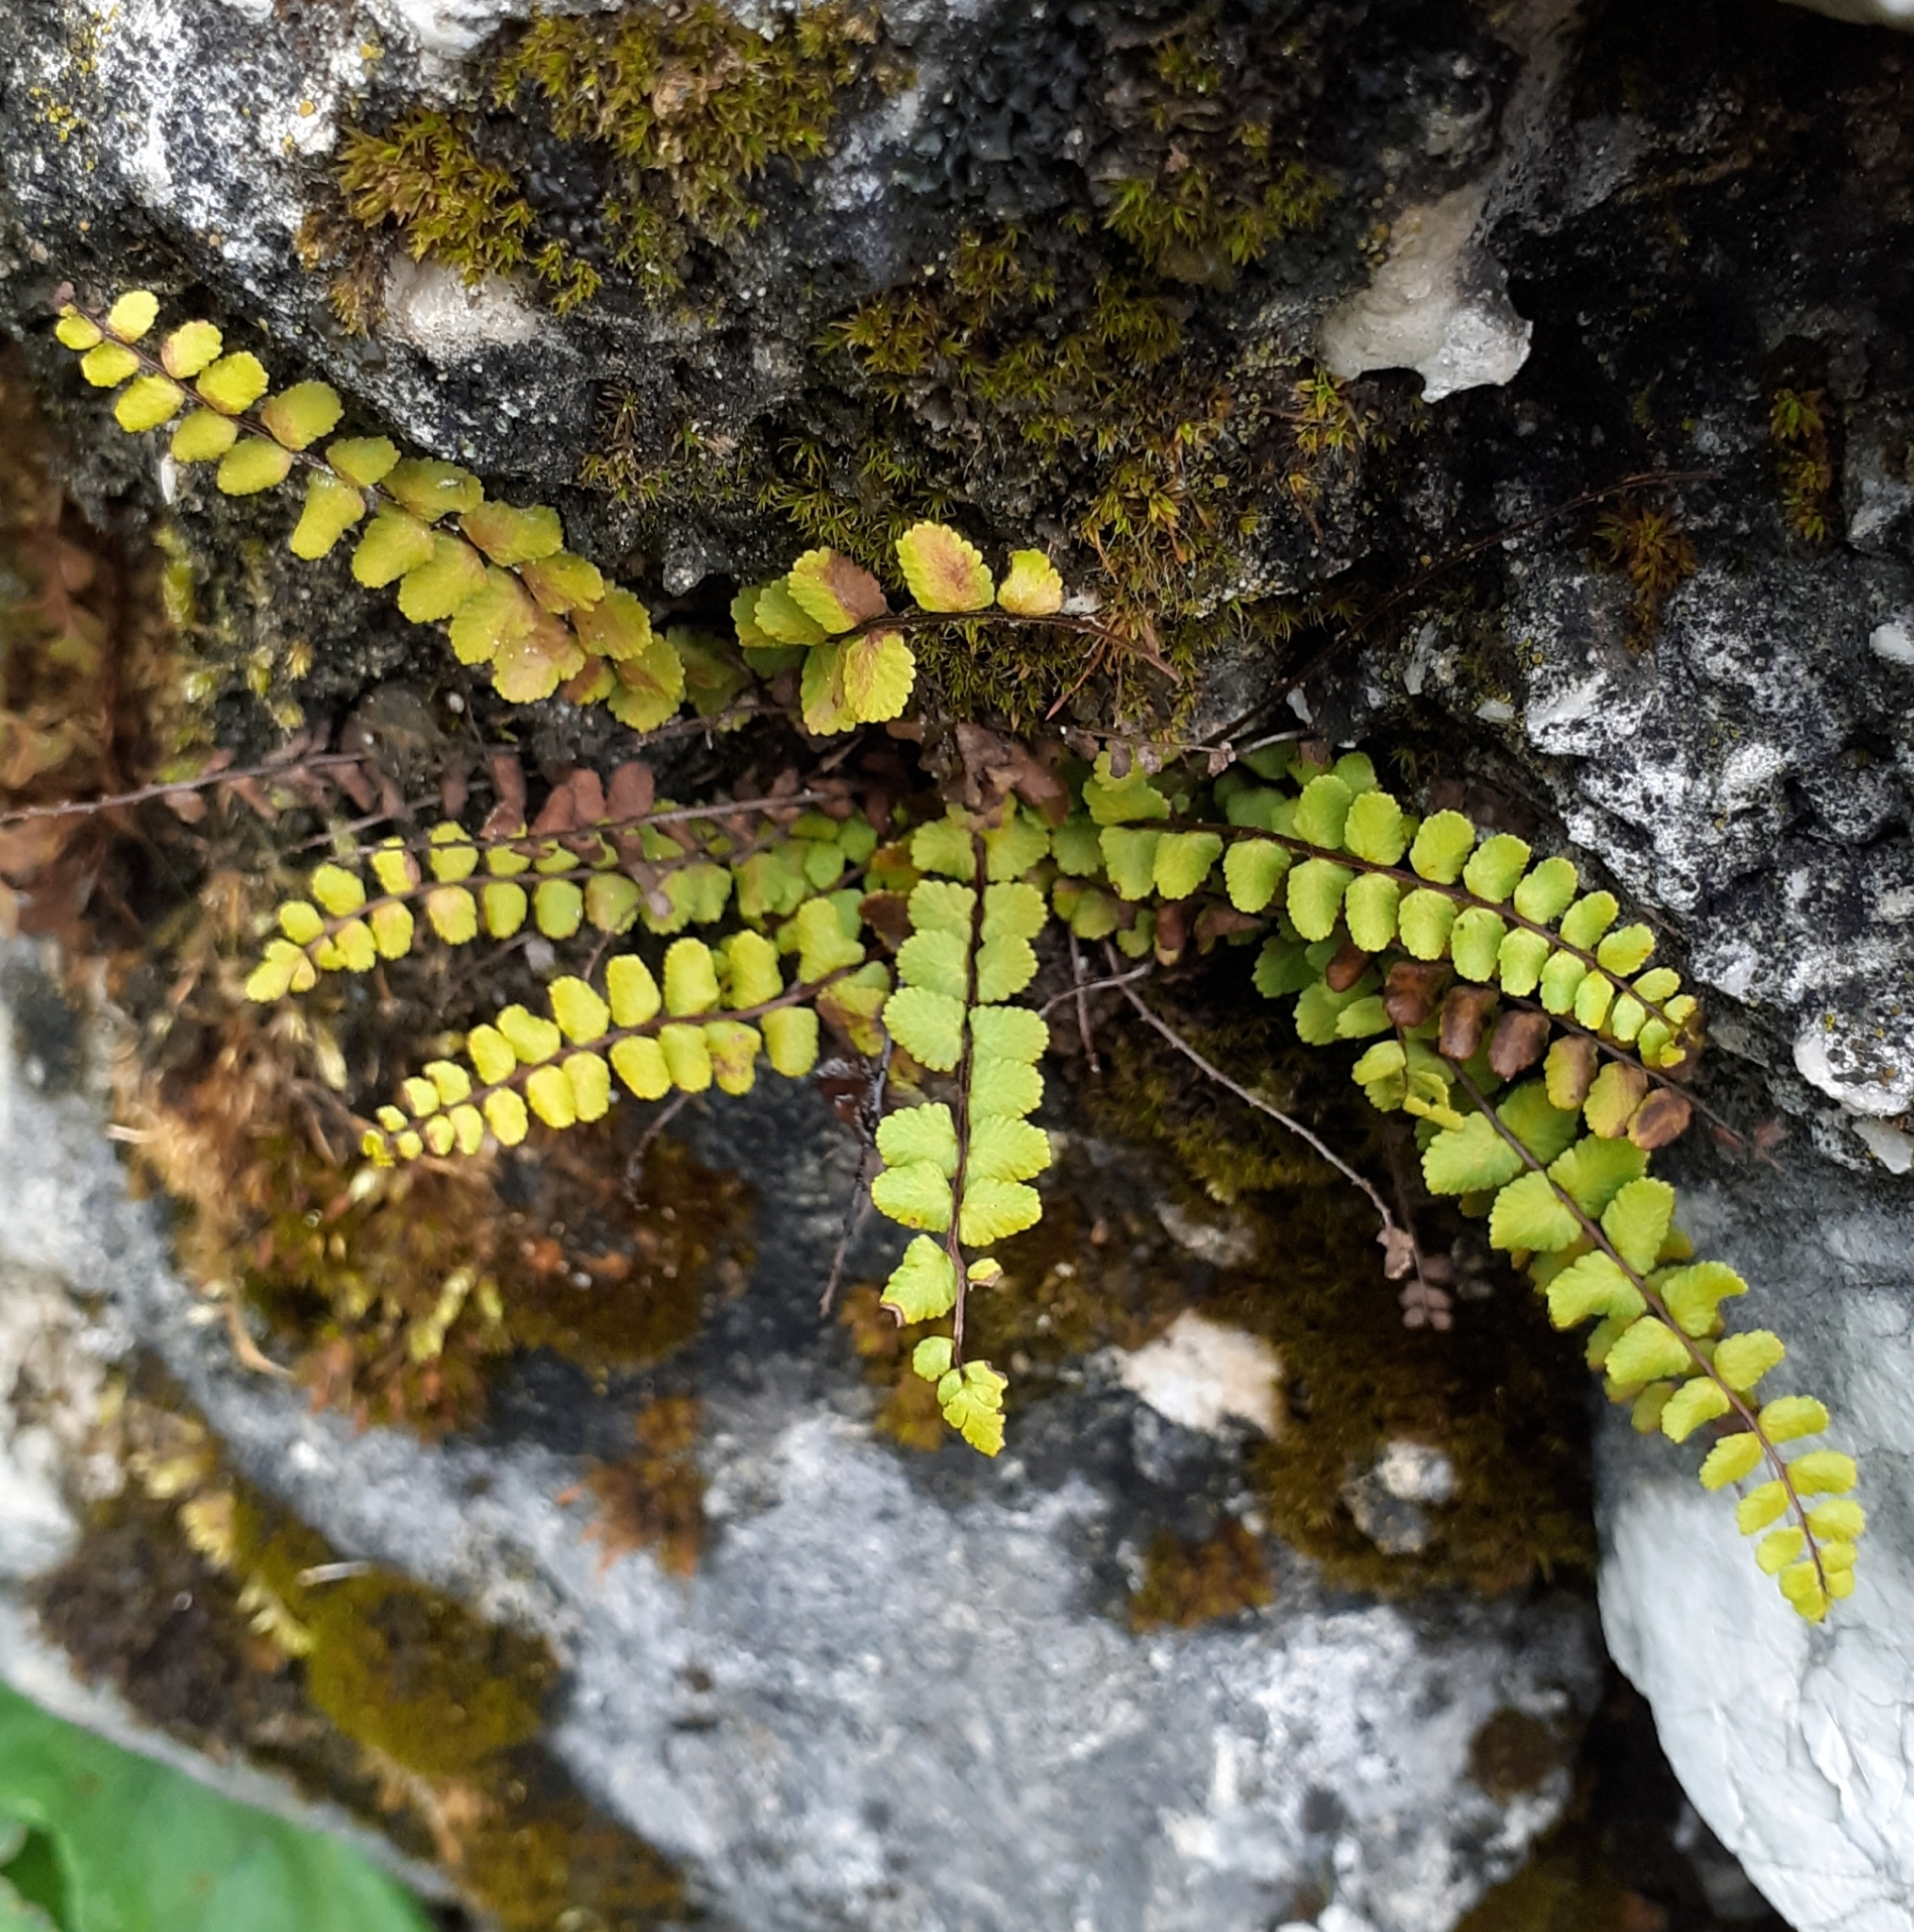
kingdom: Plantae
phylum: Tracheophyta
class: Polypodiopsida
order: Polypodiales
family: Aspleniaceae
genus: Asplenium
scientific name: Asplenium trichomanes
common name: Maidenhair spleenwort
